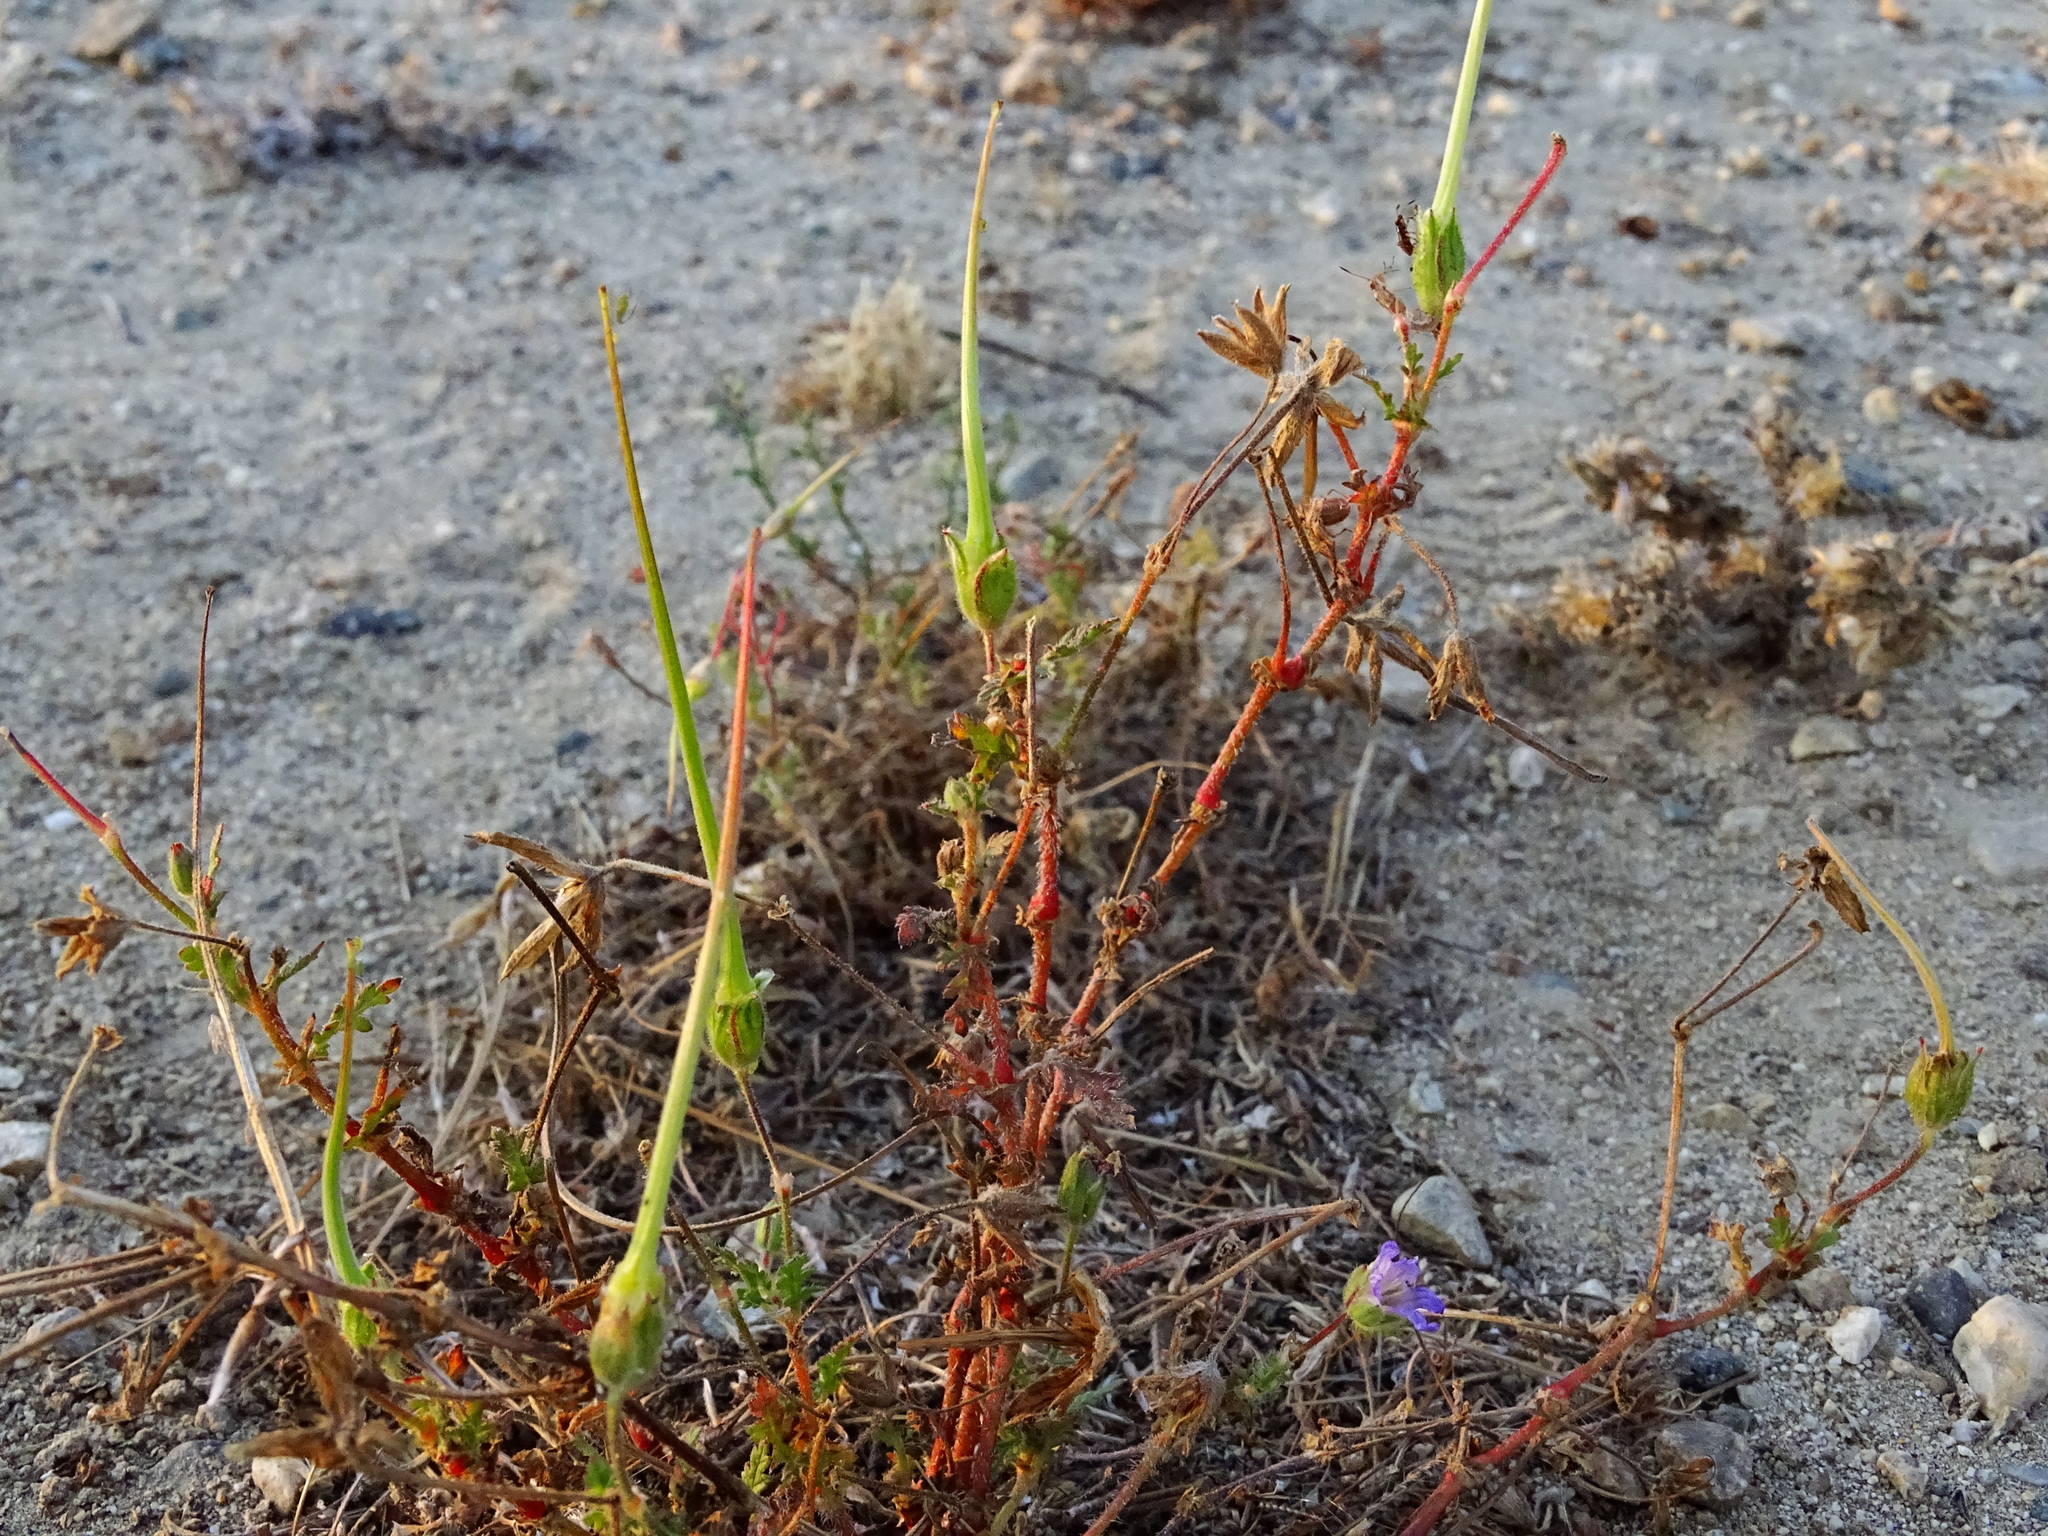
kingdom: Plantae
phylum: Tracheophyta
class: Magnoliopsida
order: Geraniales
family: Geraniaceae
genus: Erodium
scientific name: Erodium botrys
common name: Mediterranean stork's-bill
